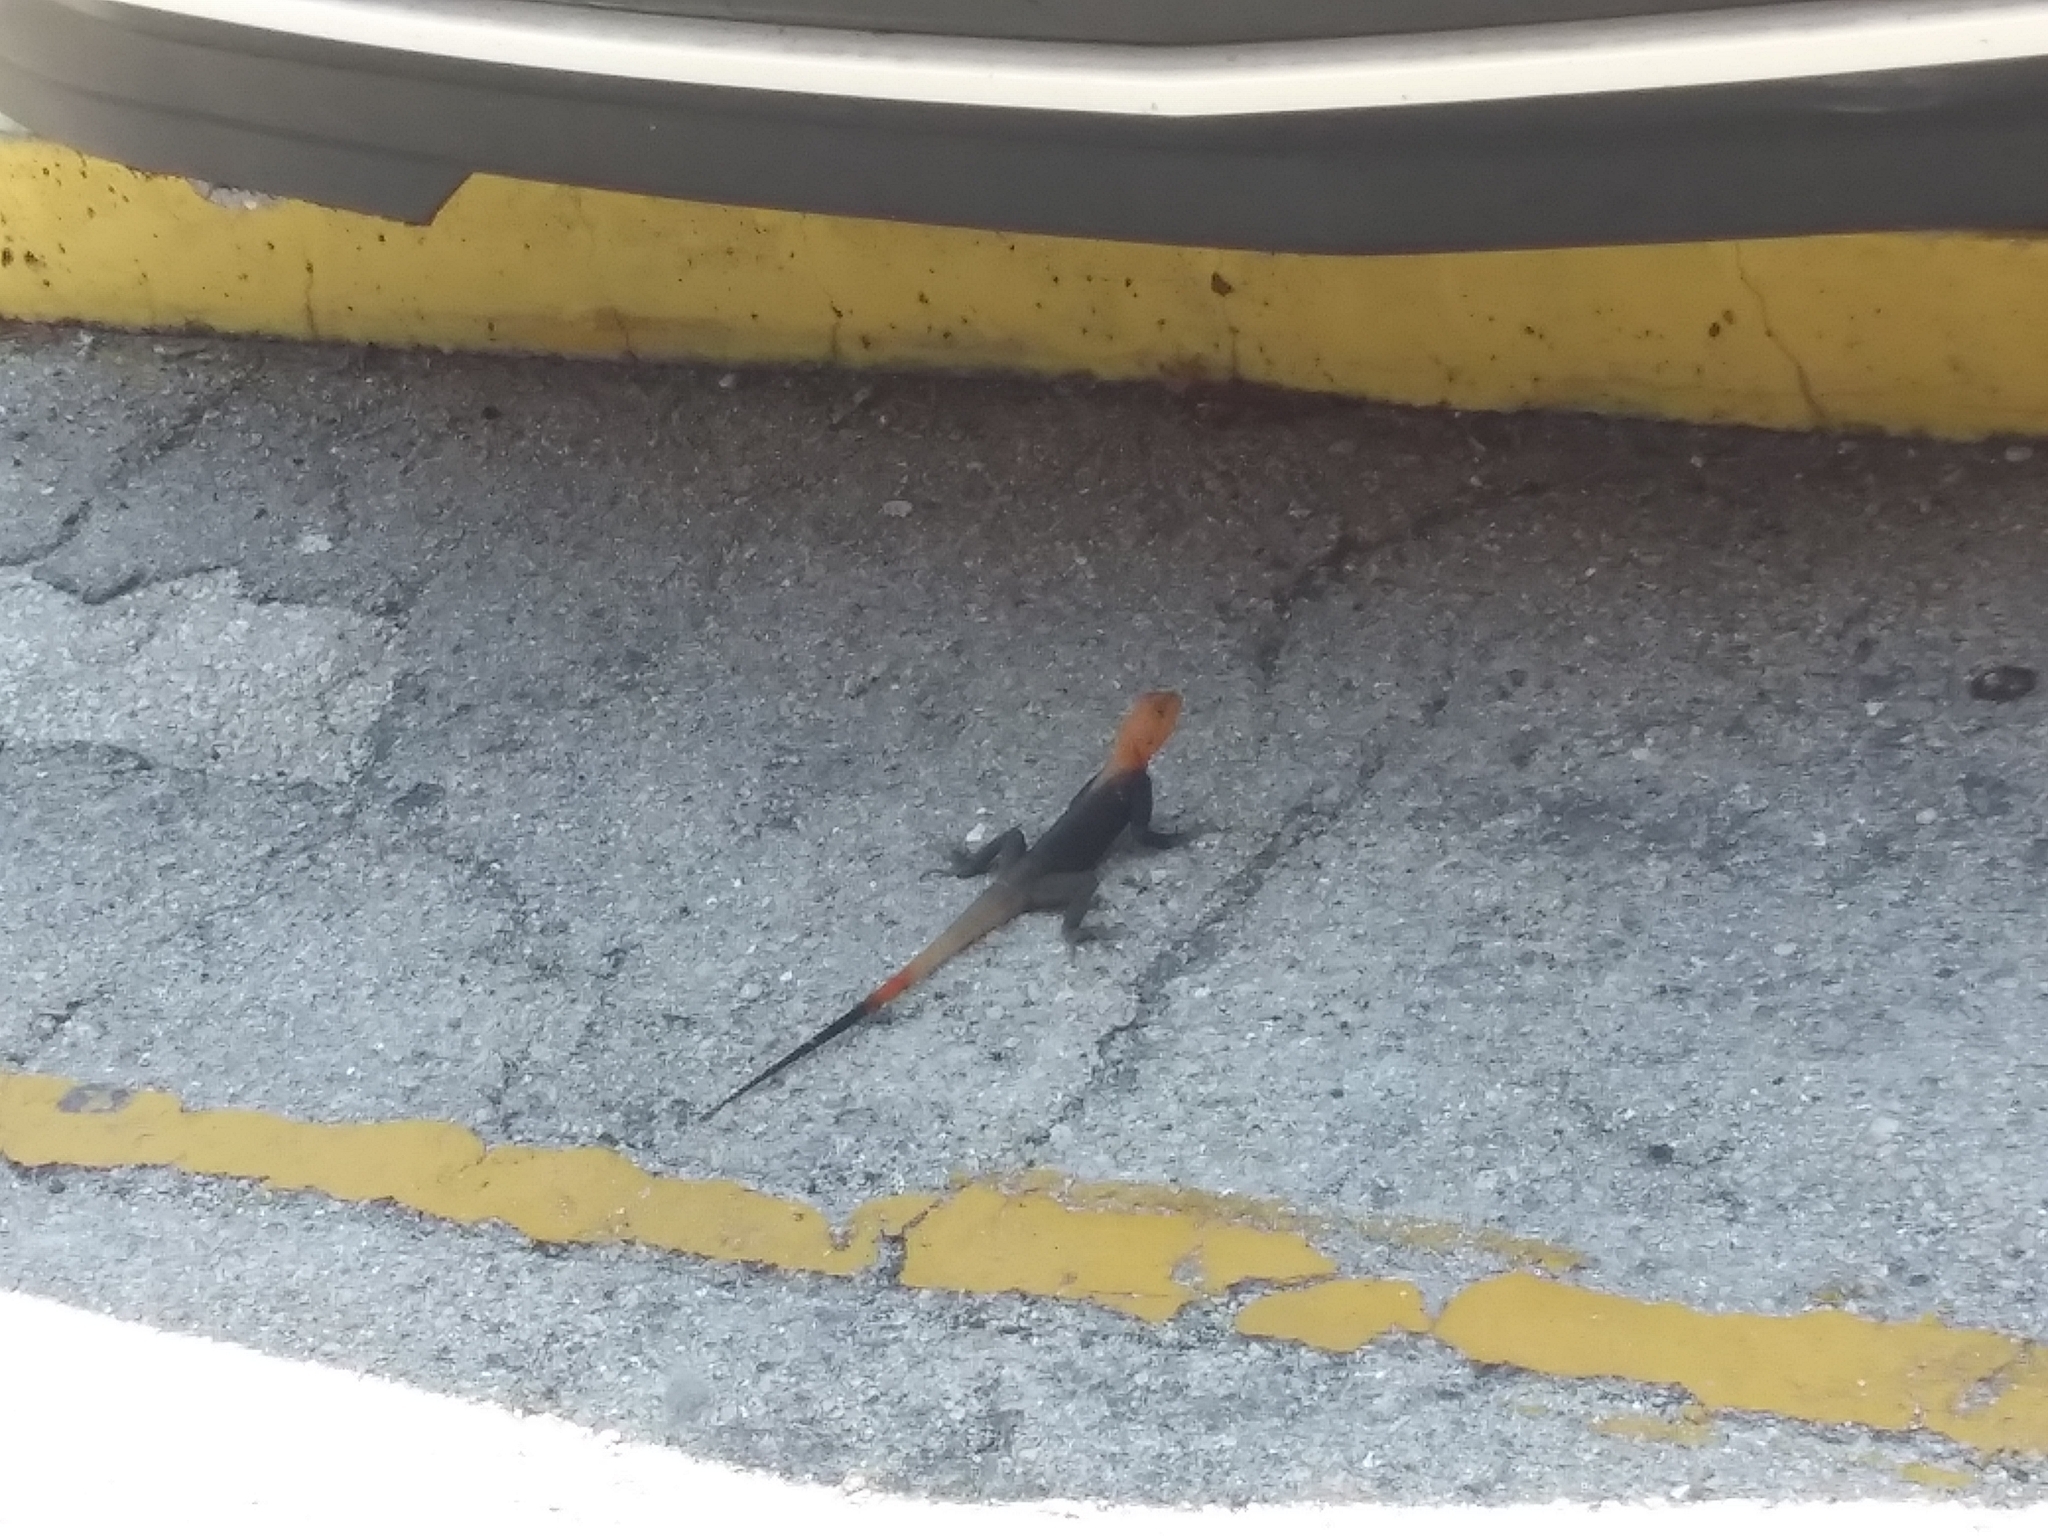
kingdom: Animalia
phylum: Chordata
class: Squamata
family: Agamidae
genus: Agama
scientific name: Agama picticauda
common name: Red-headed agama
